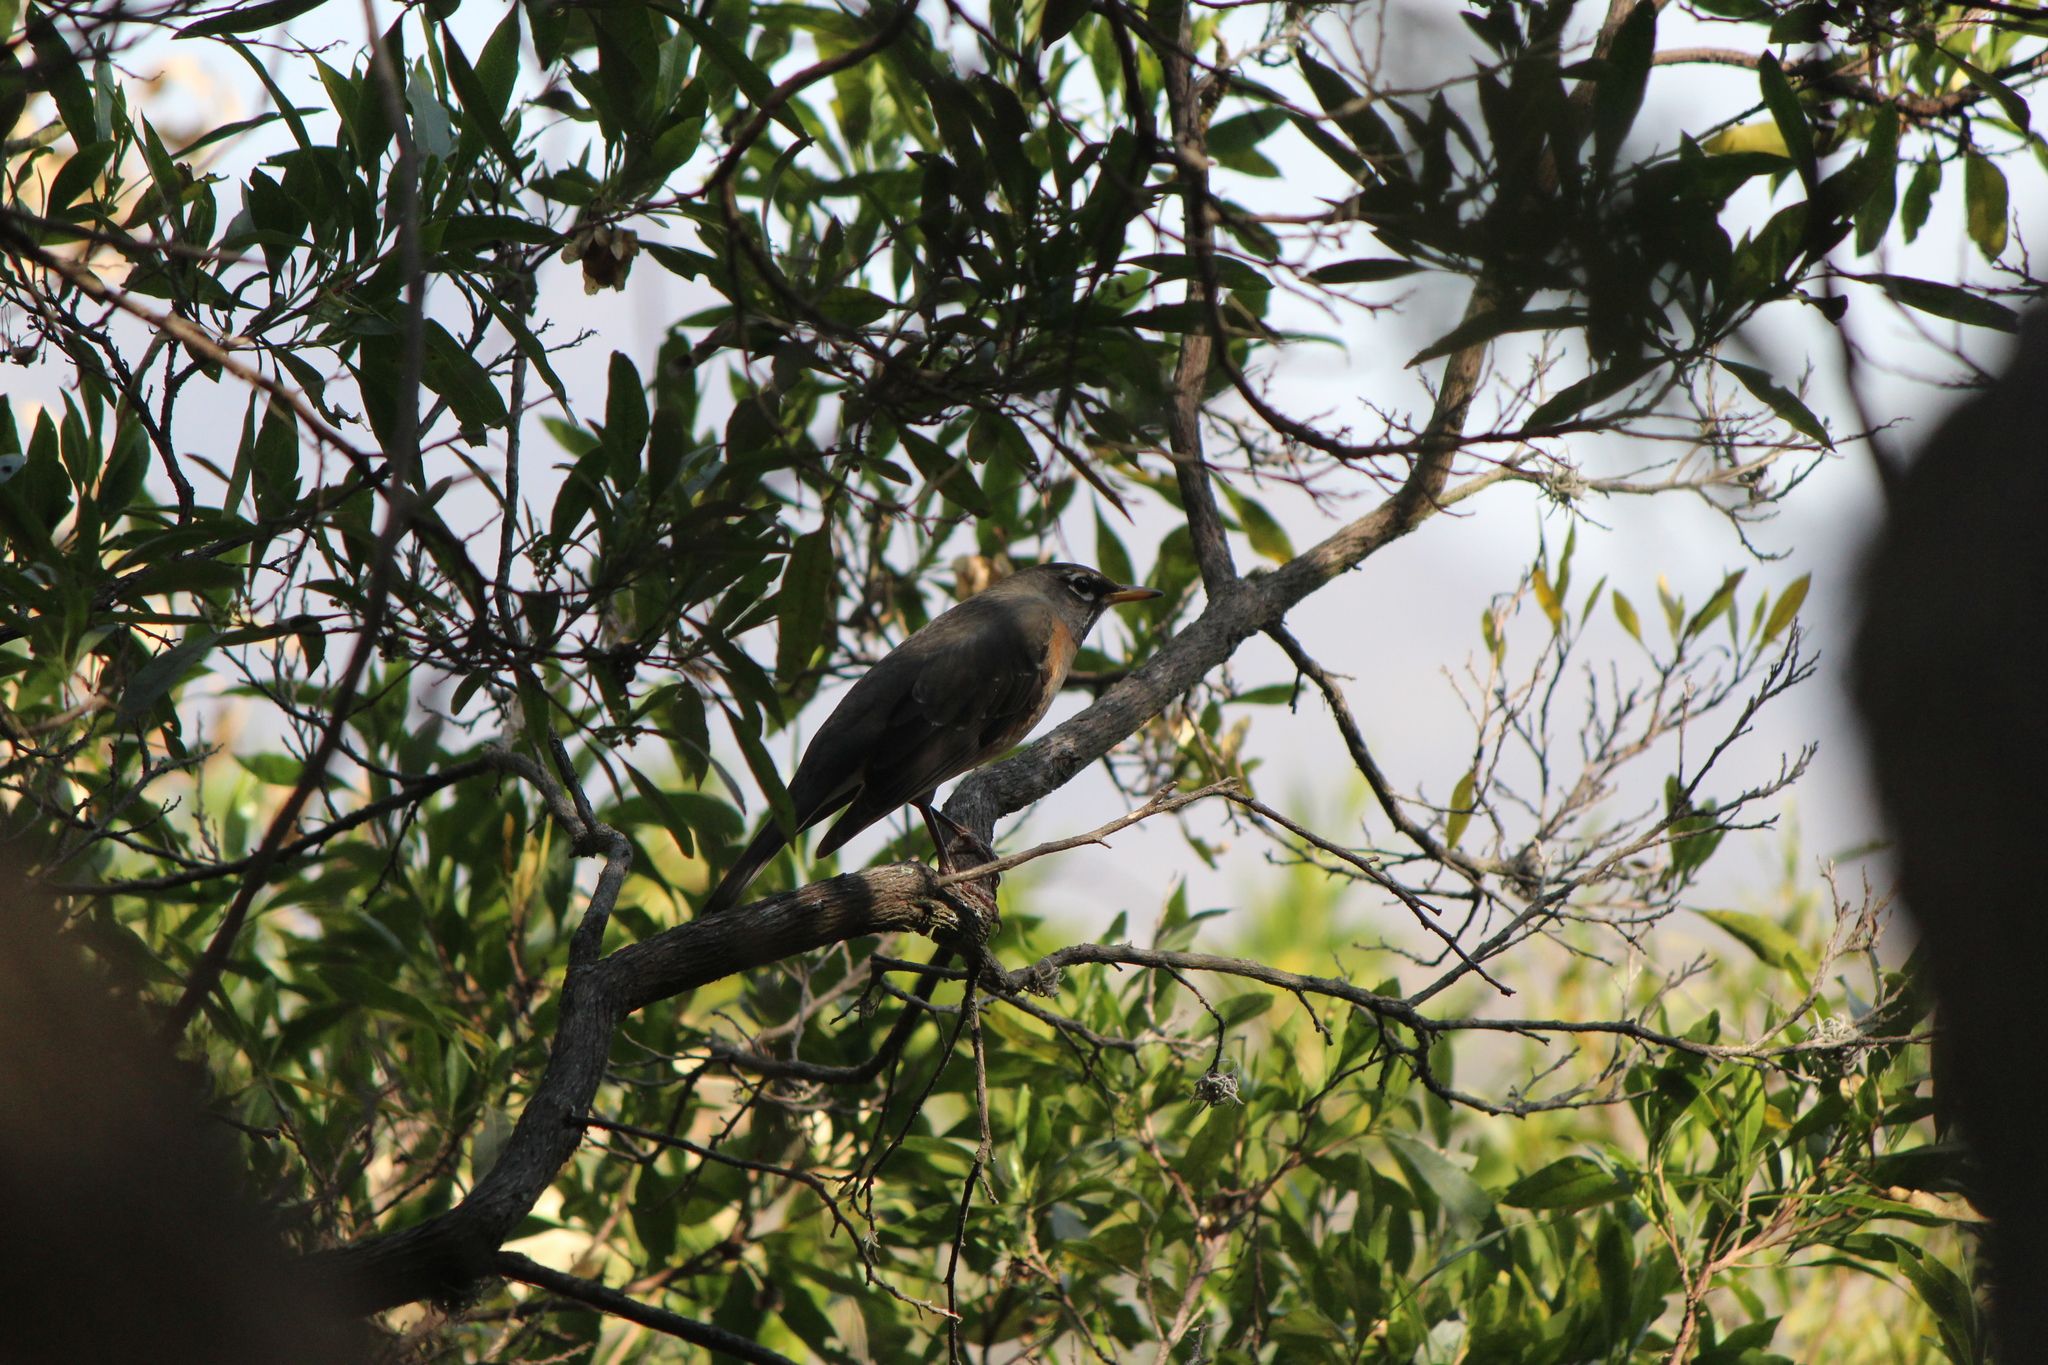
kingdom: Animalia
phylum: Chordata
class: Aves
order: Passeriformes
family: Turdidae
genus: Turdus
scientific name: Turdus migratorius
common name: American robin
